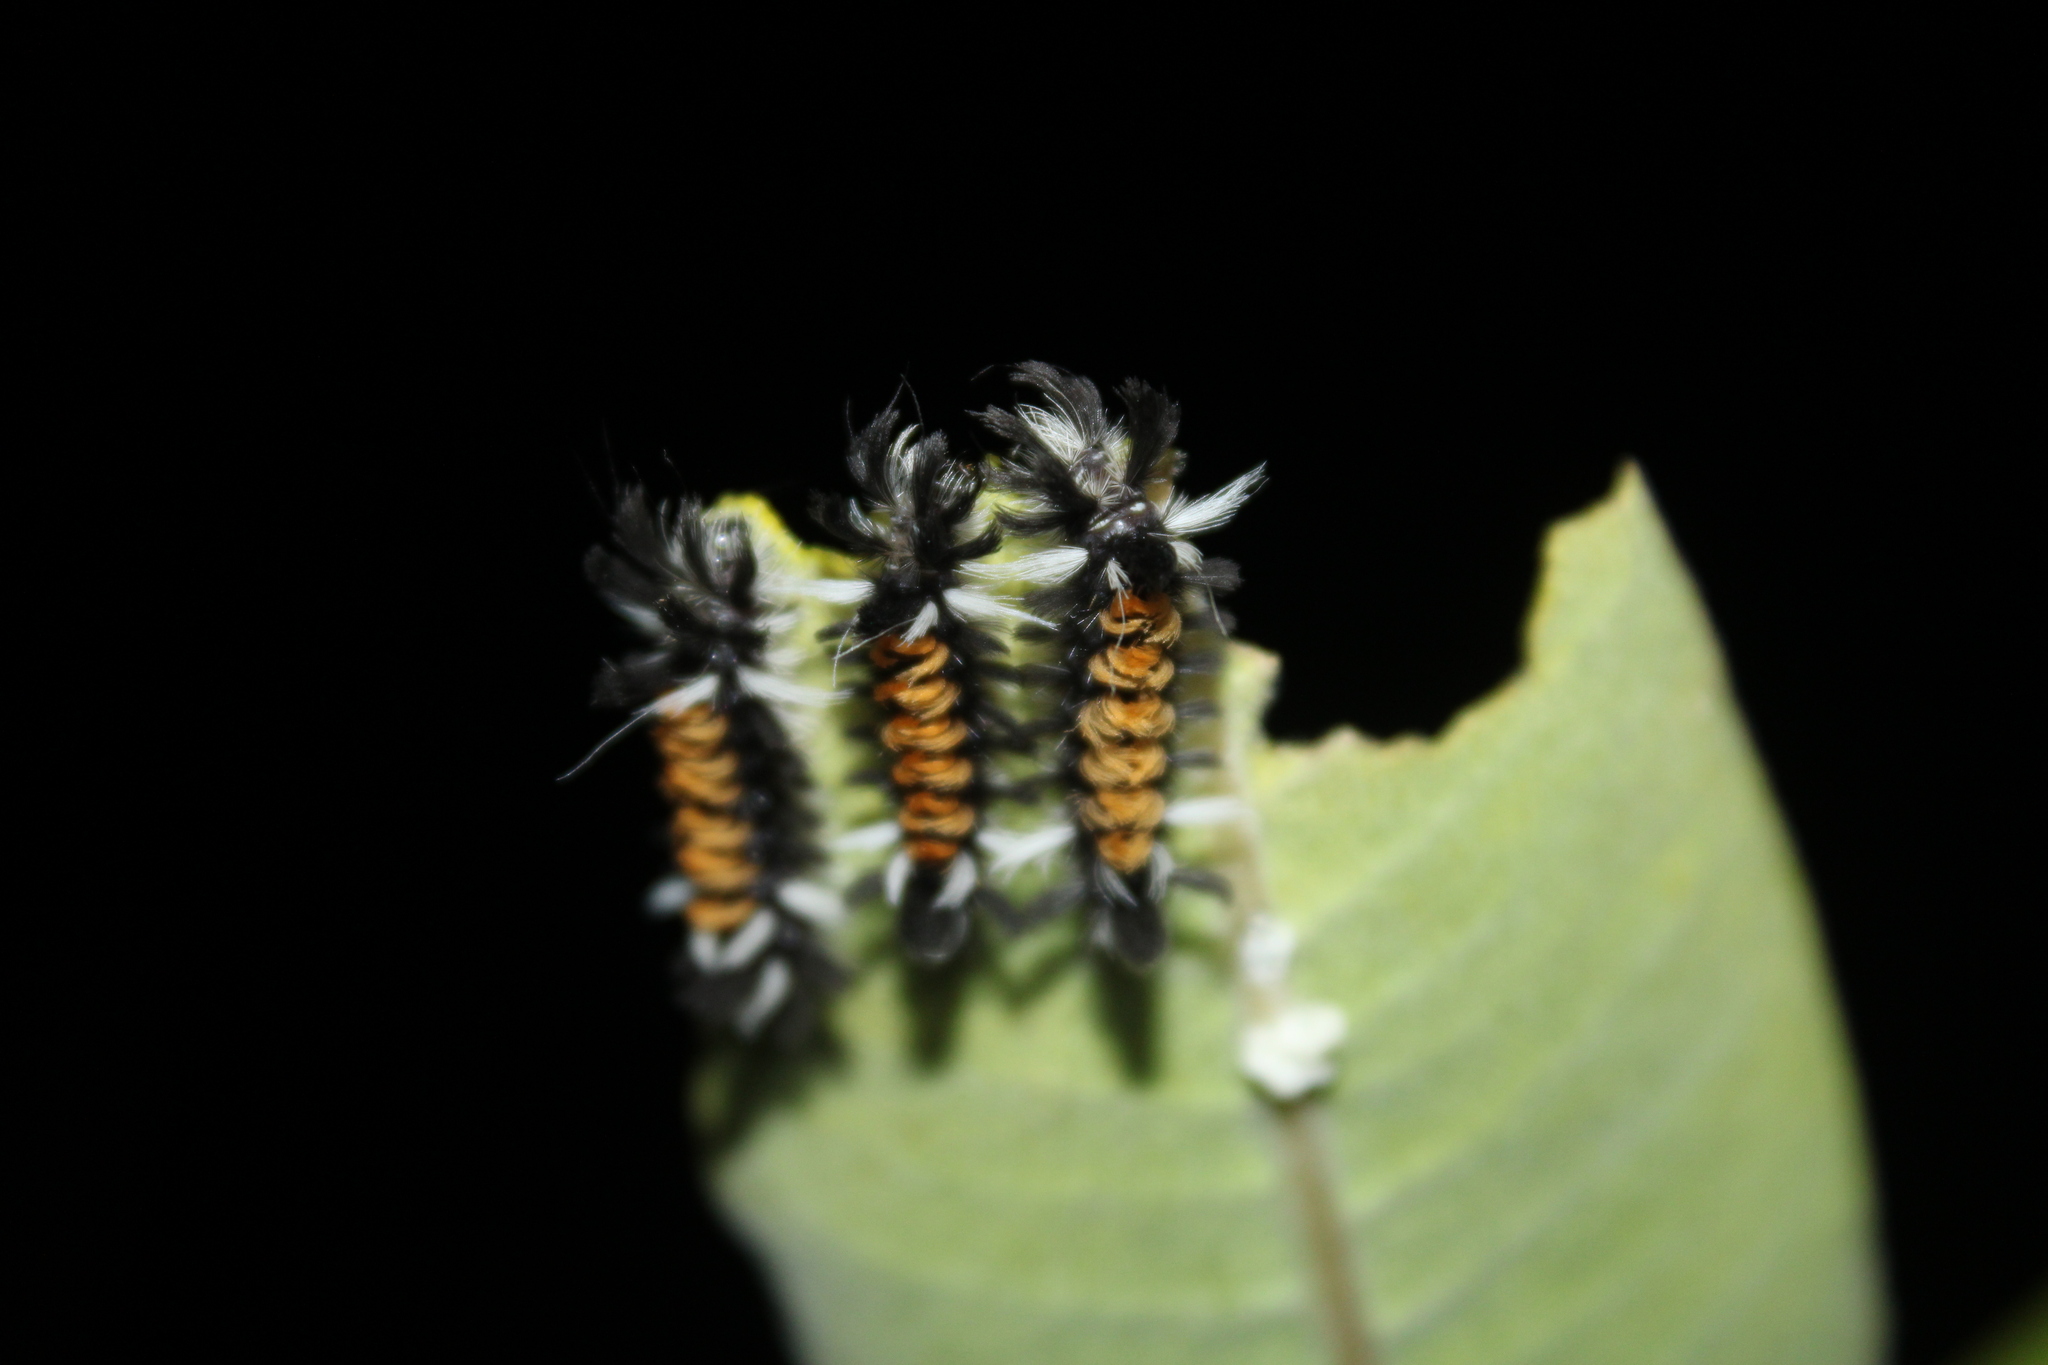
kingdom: Animalia
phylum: Arthropoda
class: Insecta
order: Lepidoptera
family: Erebidae
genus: Euchaetes
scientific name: Euchaetes egle
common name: Milkweed tussock moth
